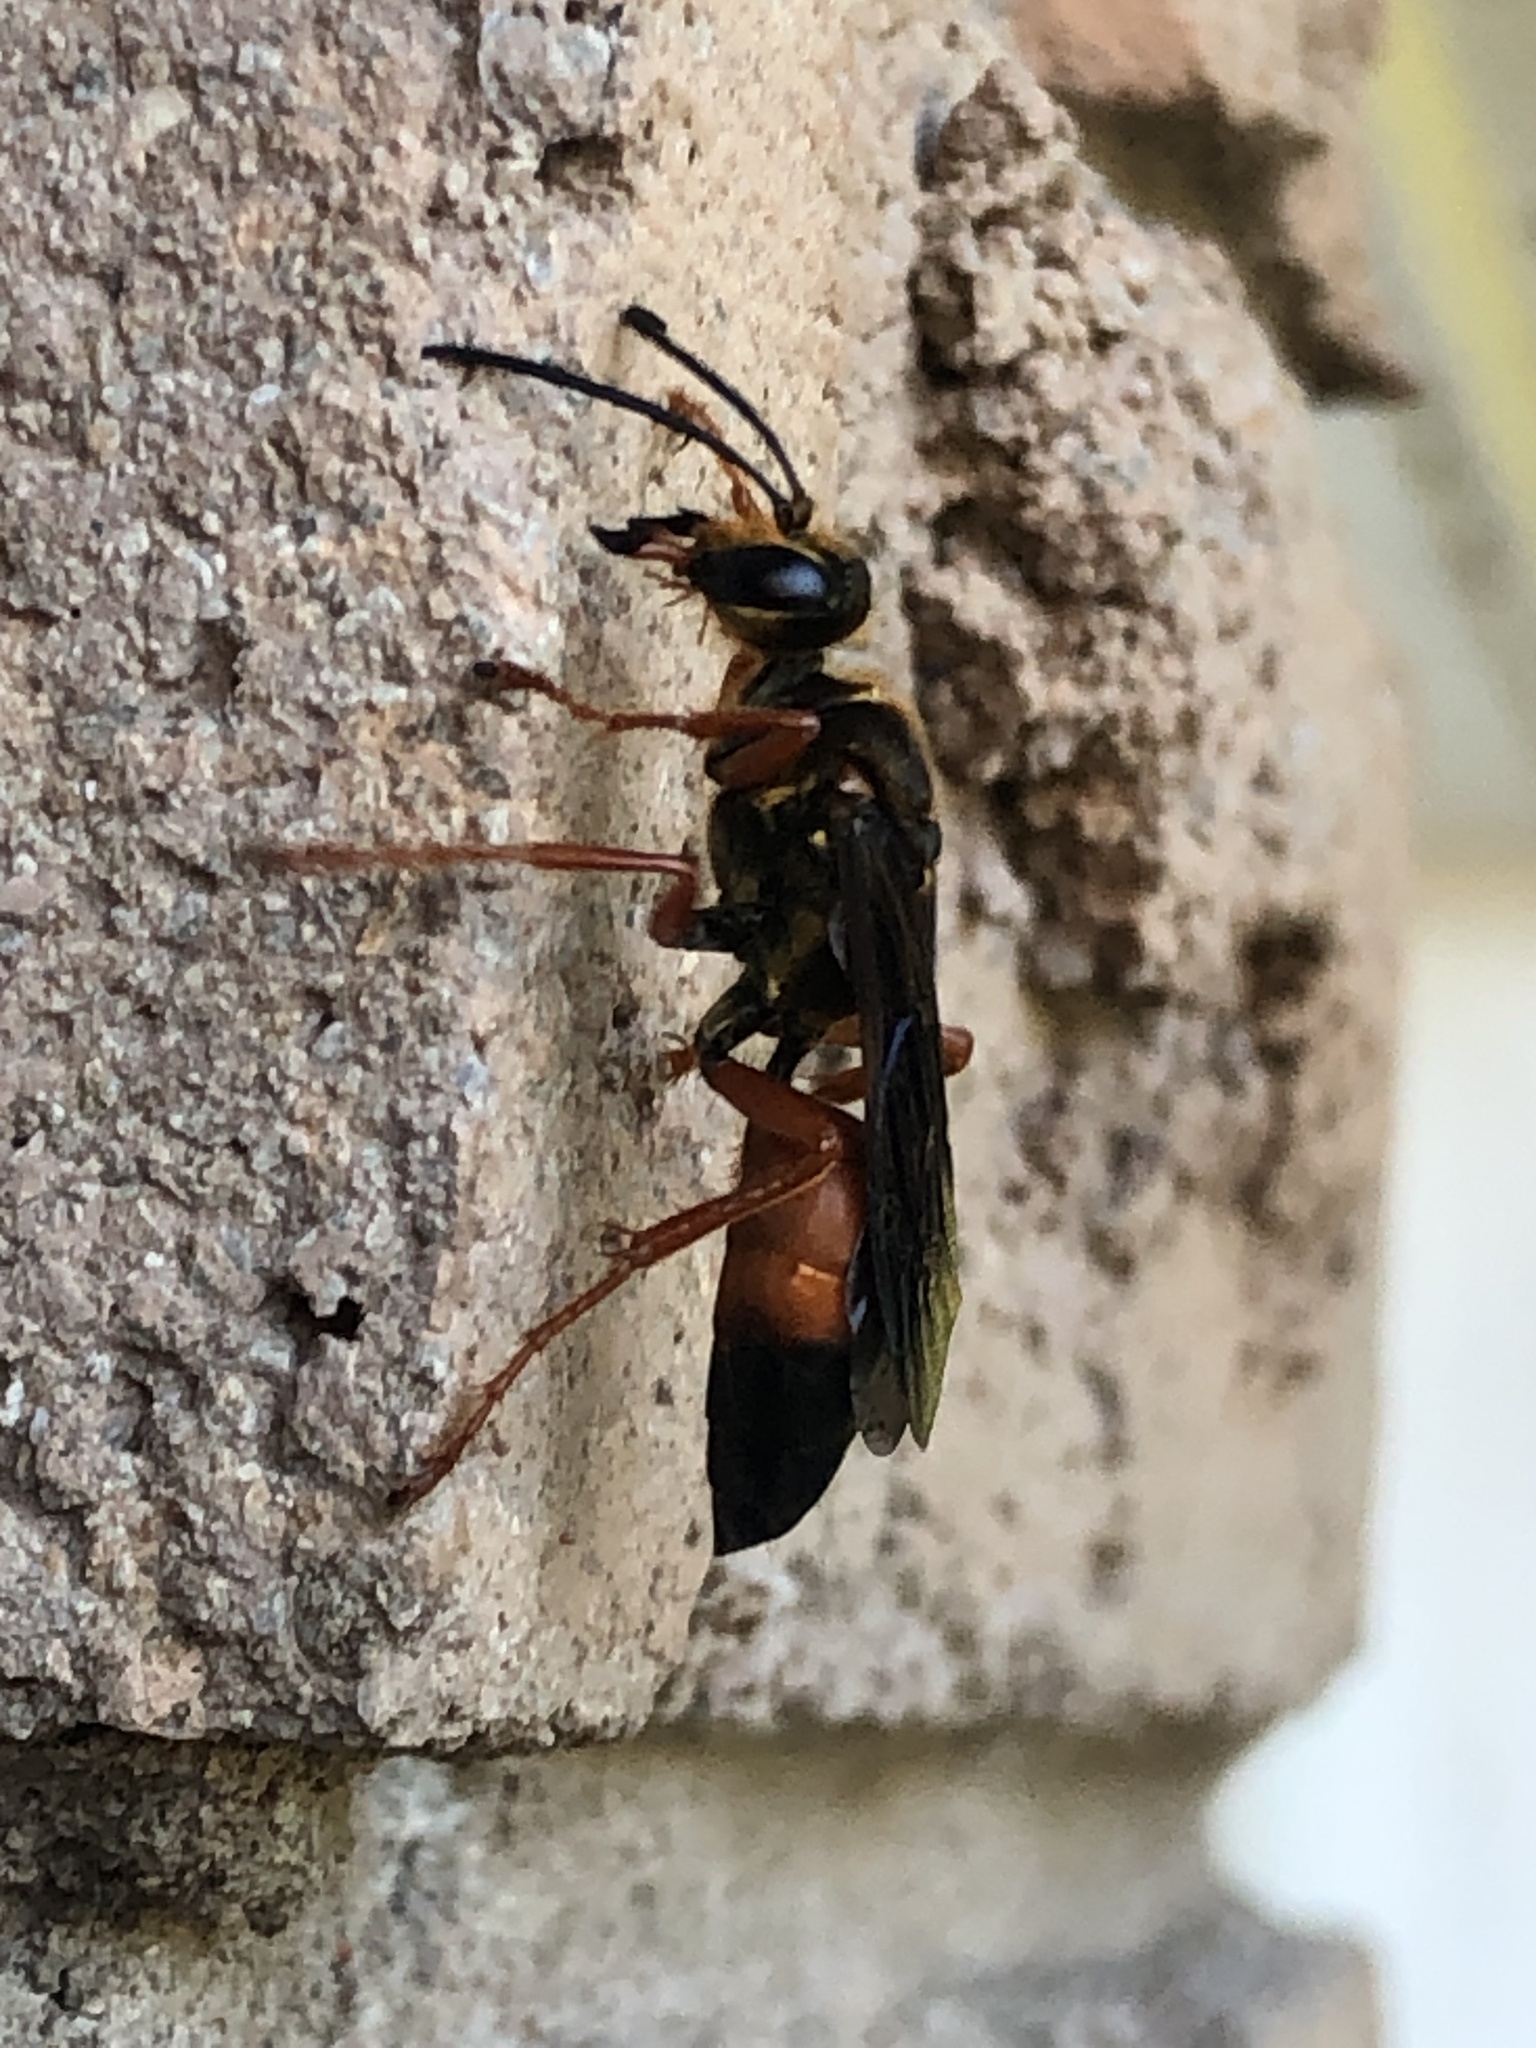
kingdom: Animalia
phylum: Arthropoda
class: Insecta
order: Hymenoptera
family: Sphecidae
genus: Sphex
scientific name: Sphex ichneumoneus
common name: Great golden digger wasp
